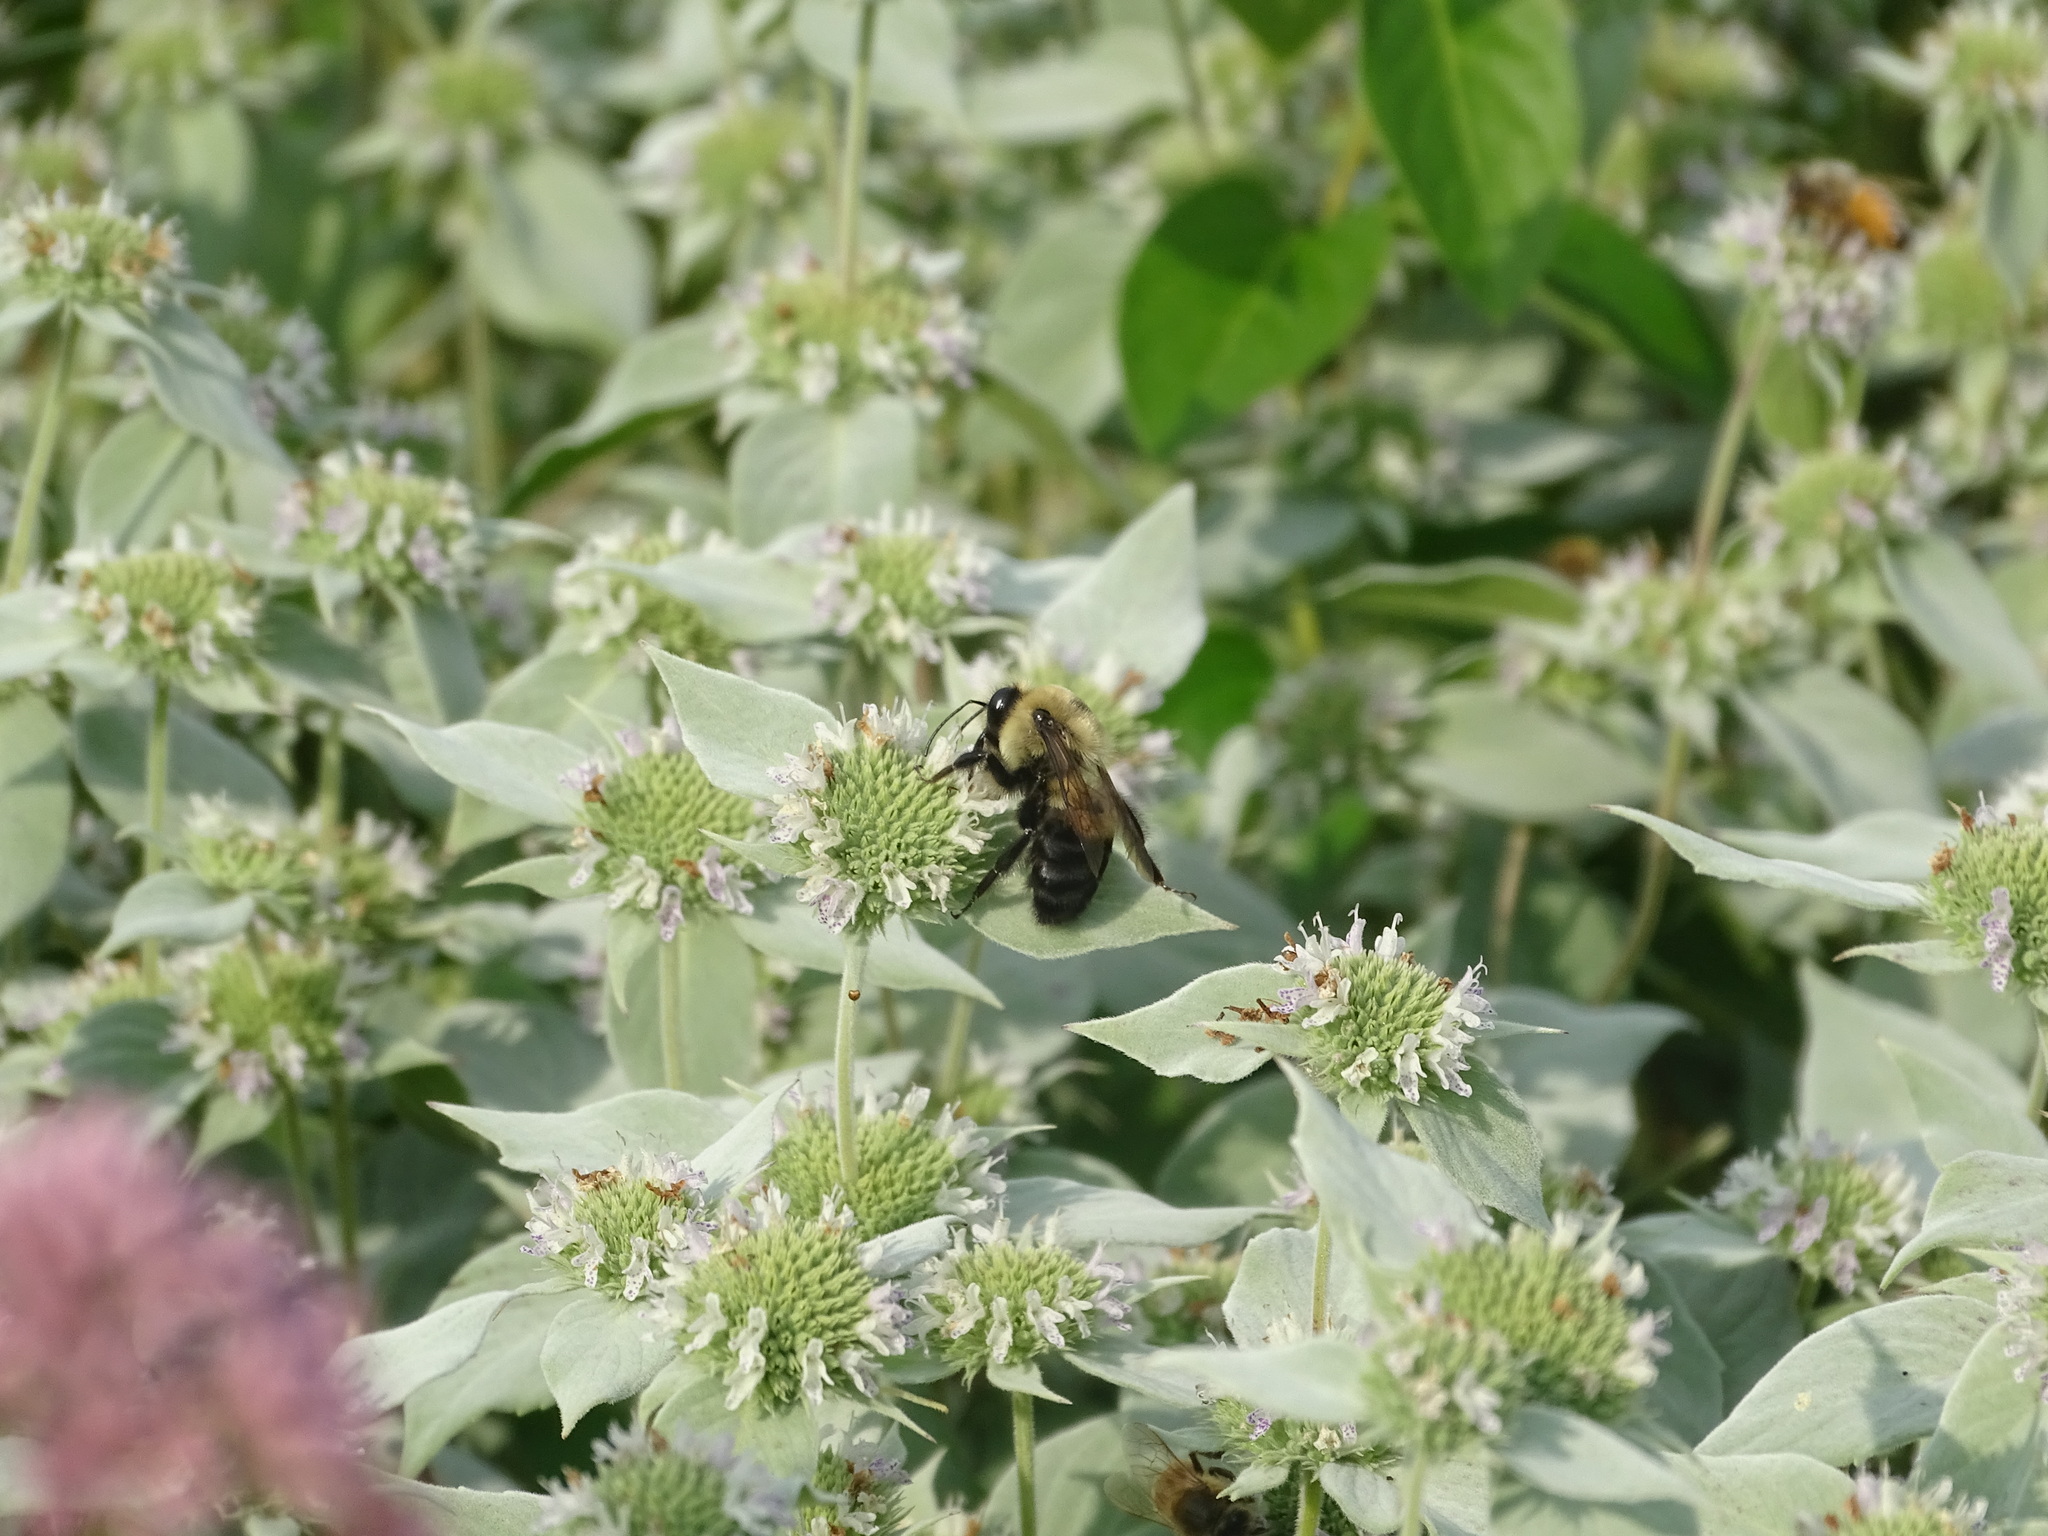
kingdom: Animalia
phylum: Arthropoda
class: Insecta
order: Hymenoptera
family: Apidae
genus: Bombus
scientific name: Bombus griseocollis
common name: Brown-belted bumble bee
